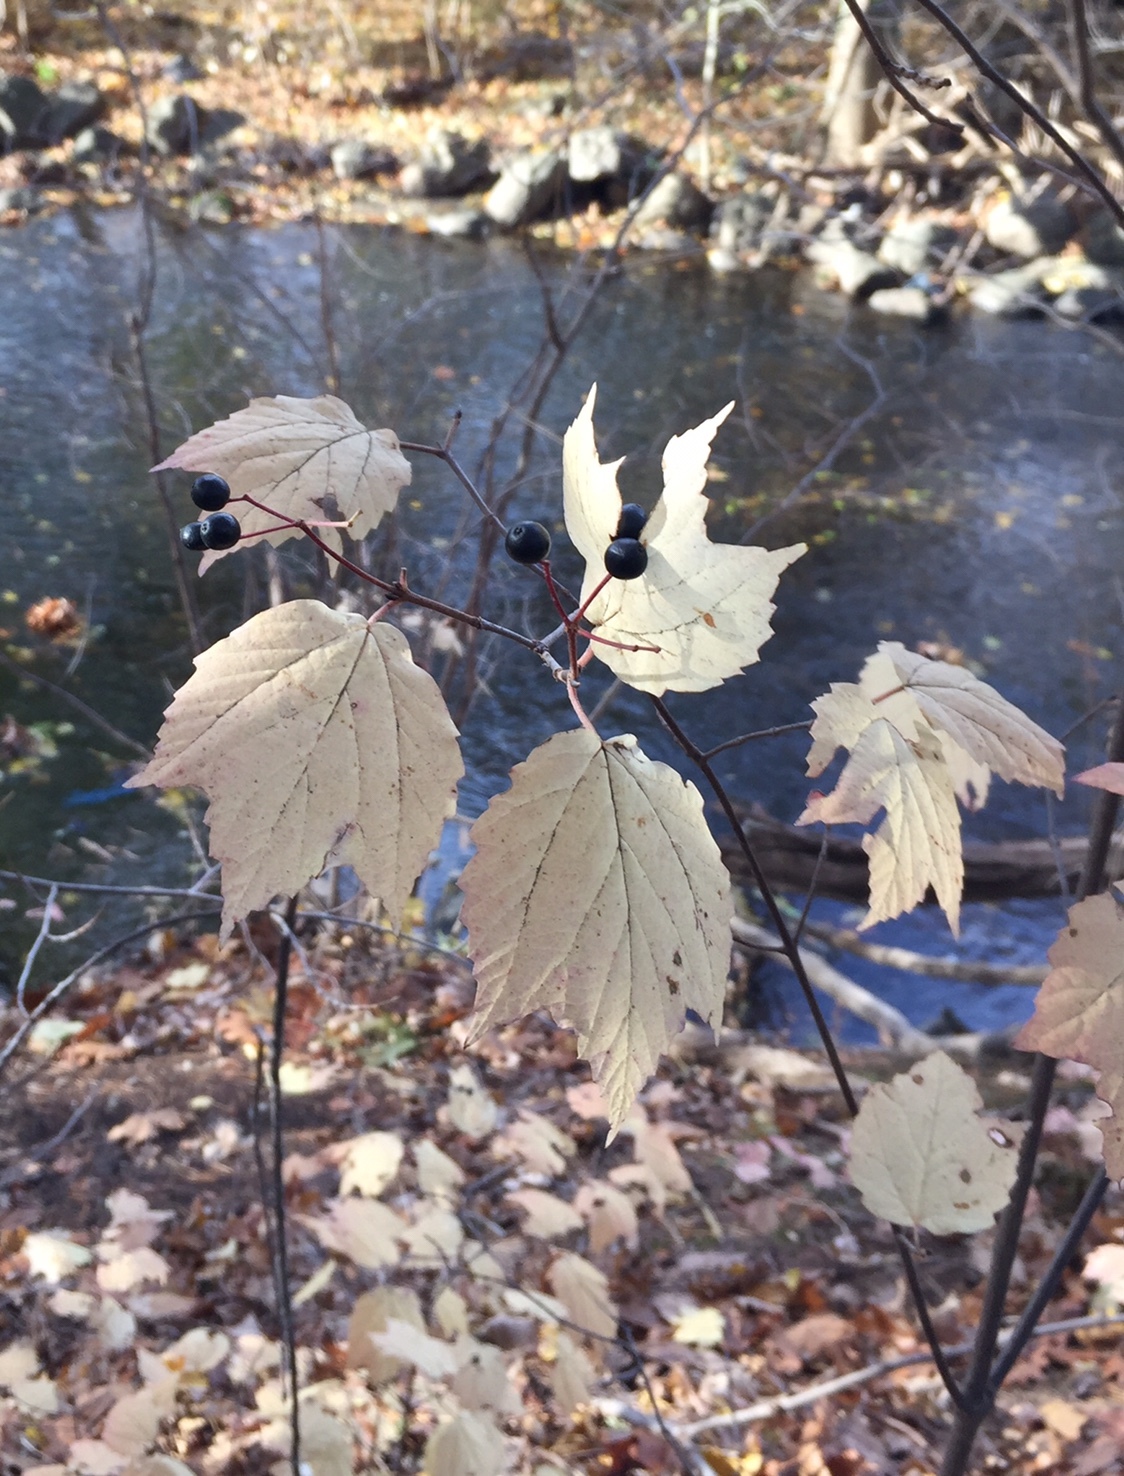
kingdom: Plantae
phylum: Tracheophyta
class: Magnoliopsida
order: Dipsacales
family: Viburnaceae
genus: Viburnum
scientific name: Viburnum acerifolium
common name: Dockmackie
